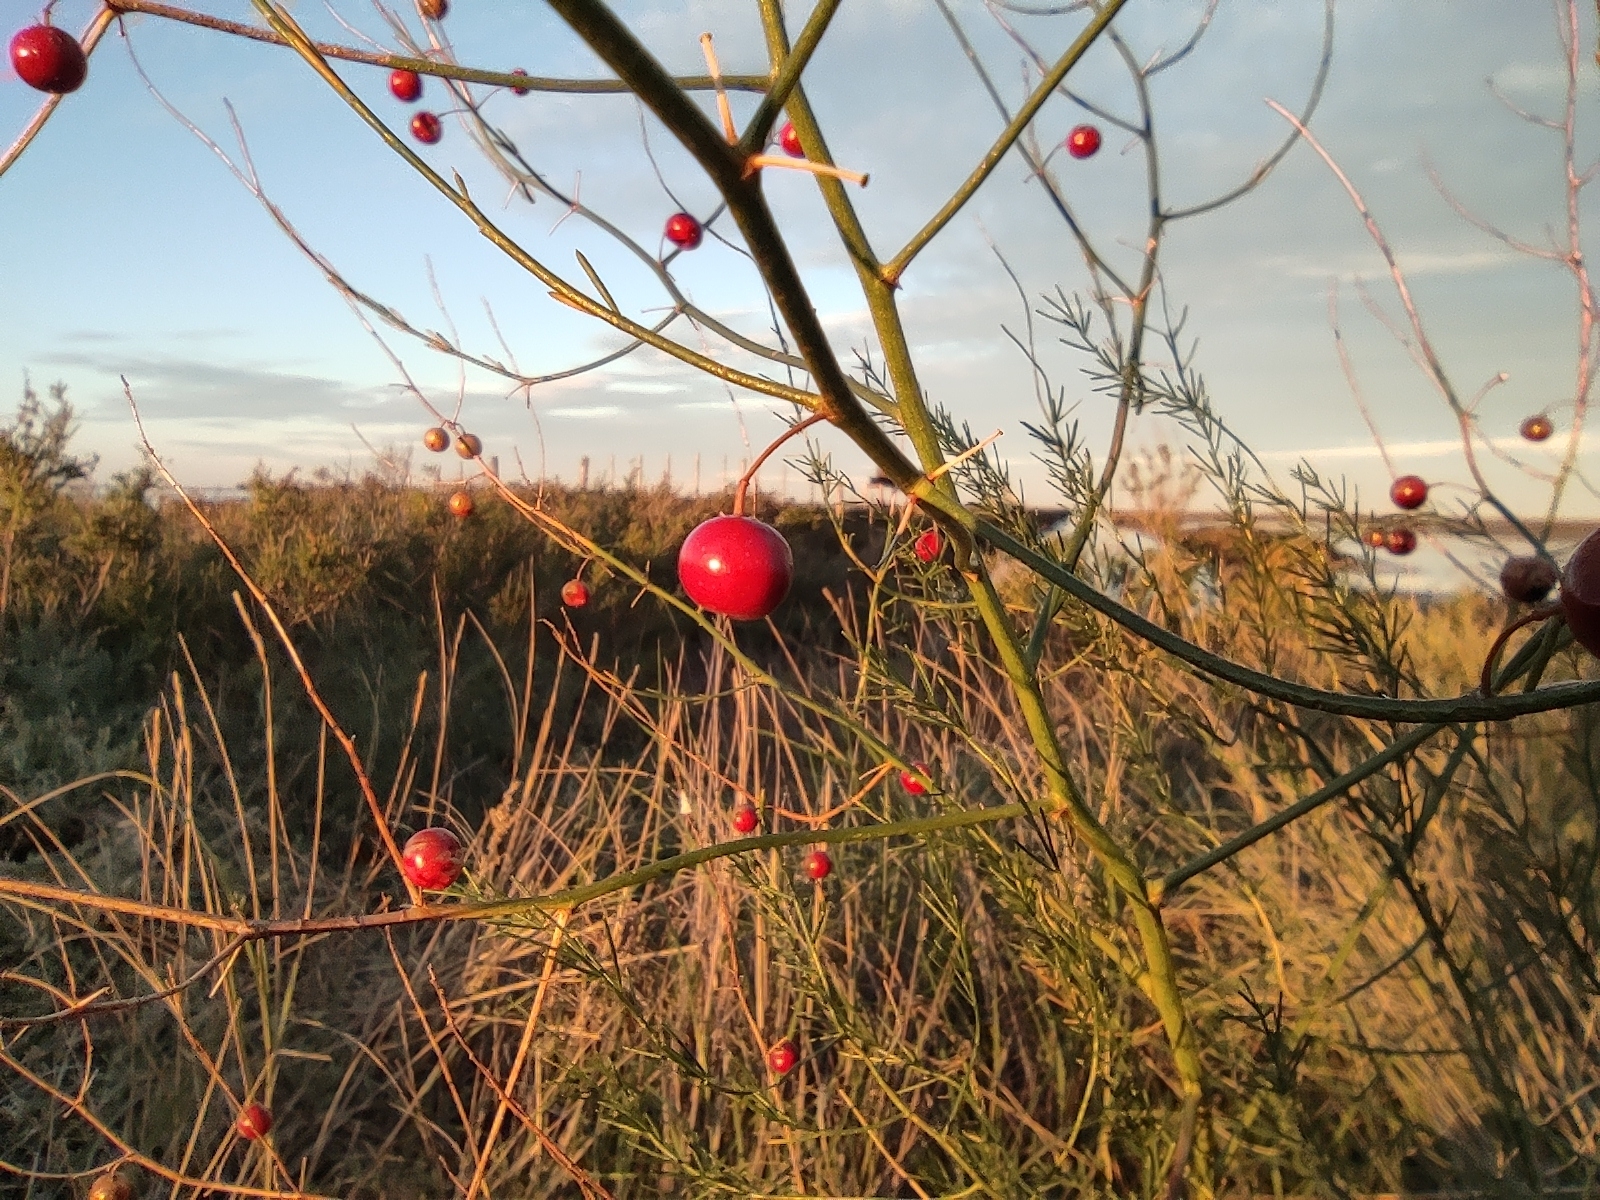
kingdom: Plantae
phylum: Tracheophyta
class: Liliopsida
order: Asparagales
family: Asparagaceae
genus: Asparagus
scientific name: Asparagus officinalis
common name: Garden asparagus
